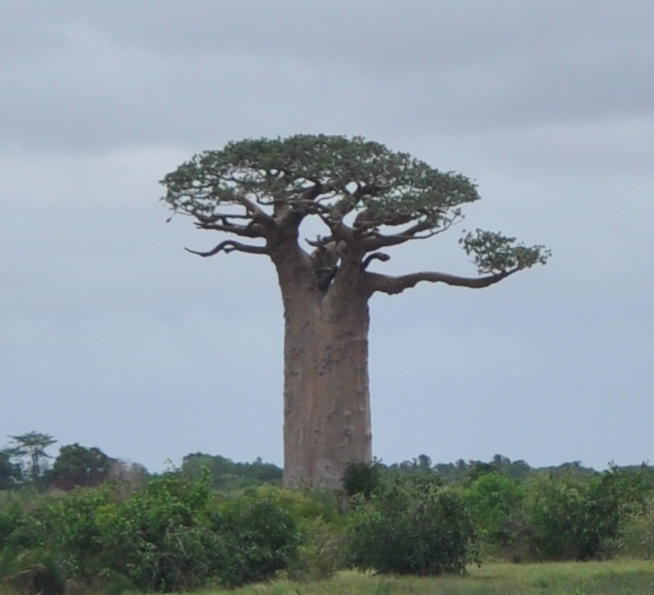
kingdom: Plantae
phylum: Tracheophyta
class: Magnoliopsida
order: Malvales
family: Malvaceae
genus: Adansonia
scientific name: Adansonia grandidieri
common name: Grandidier's baobab
